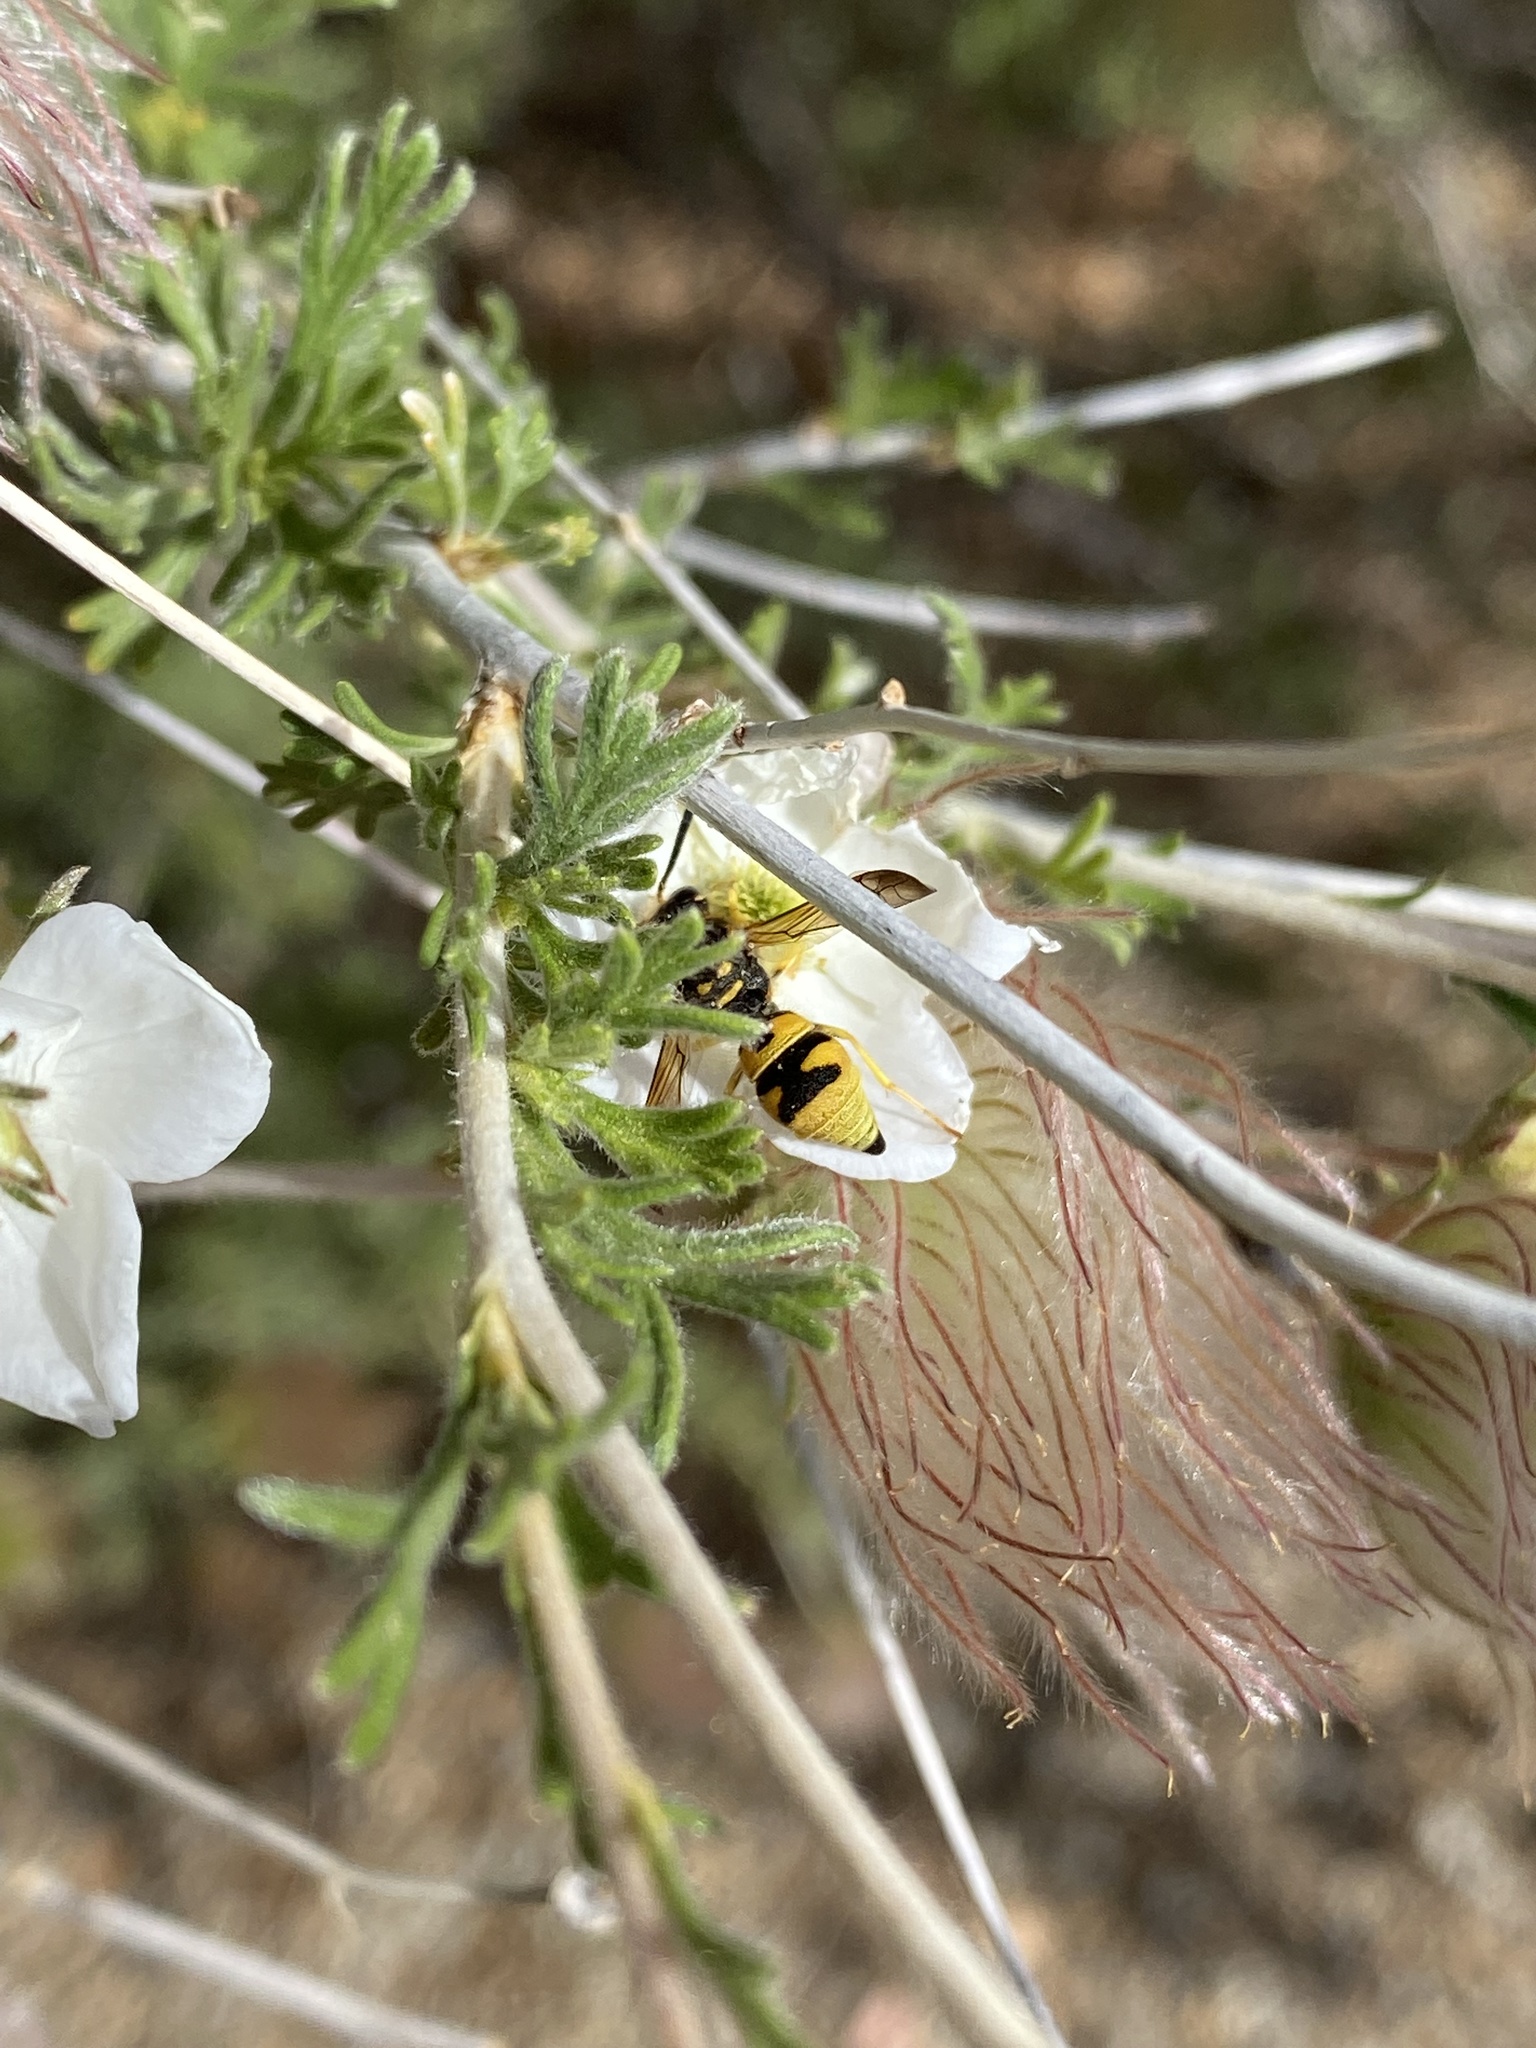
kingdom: Animalia
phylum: Arthropoda
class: Insecta
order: Hymenoptera
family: Vespidae
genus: Ancistrocerus
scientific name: Ancistrocerus
